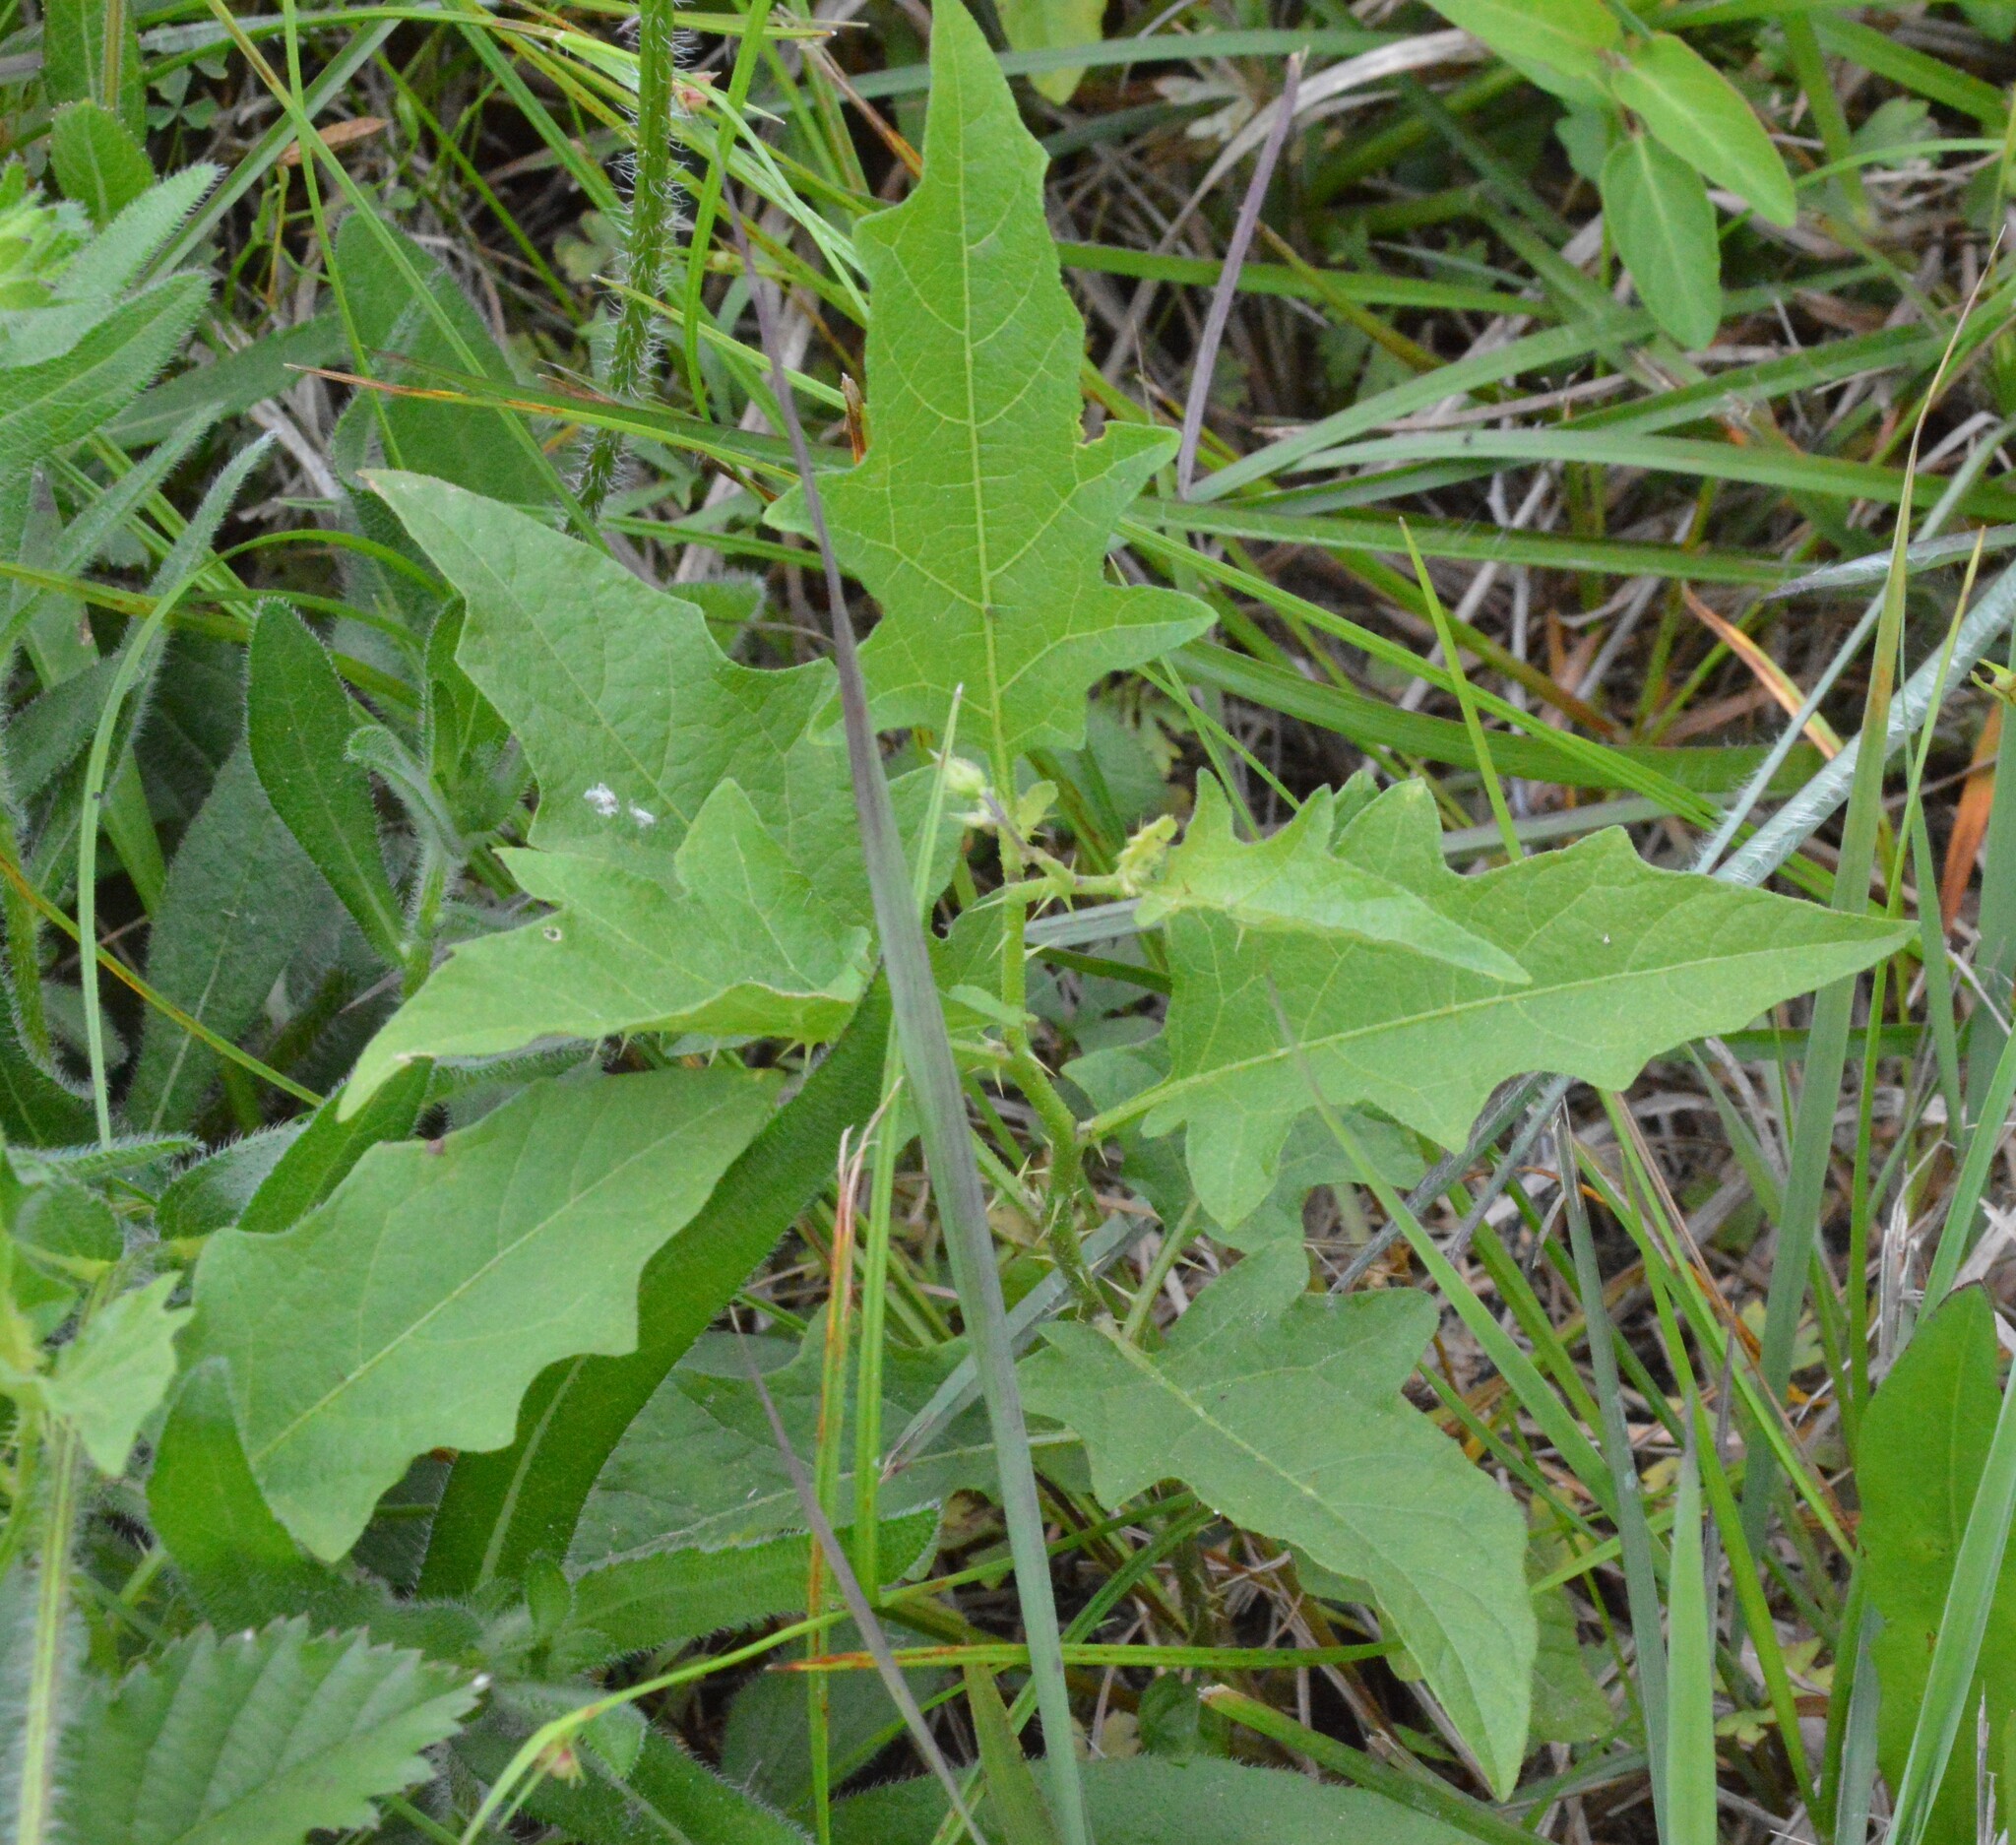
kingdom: Plantae
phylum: Tracheophyta
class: Magnoliopsida
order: Solanales
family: Solanaceae
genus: Solanum
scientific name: Solanum carolinense
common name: Horse-nettle
